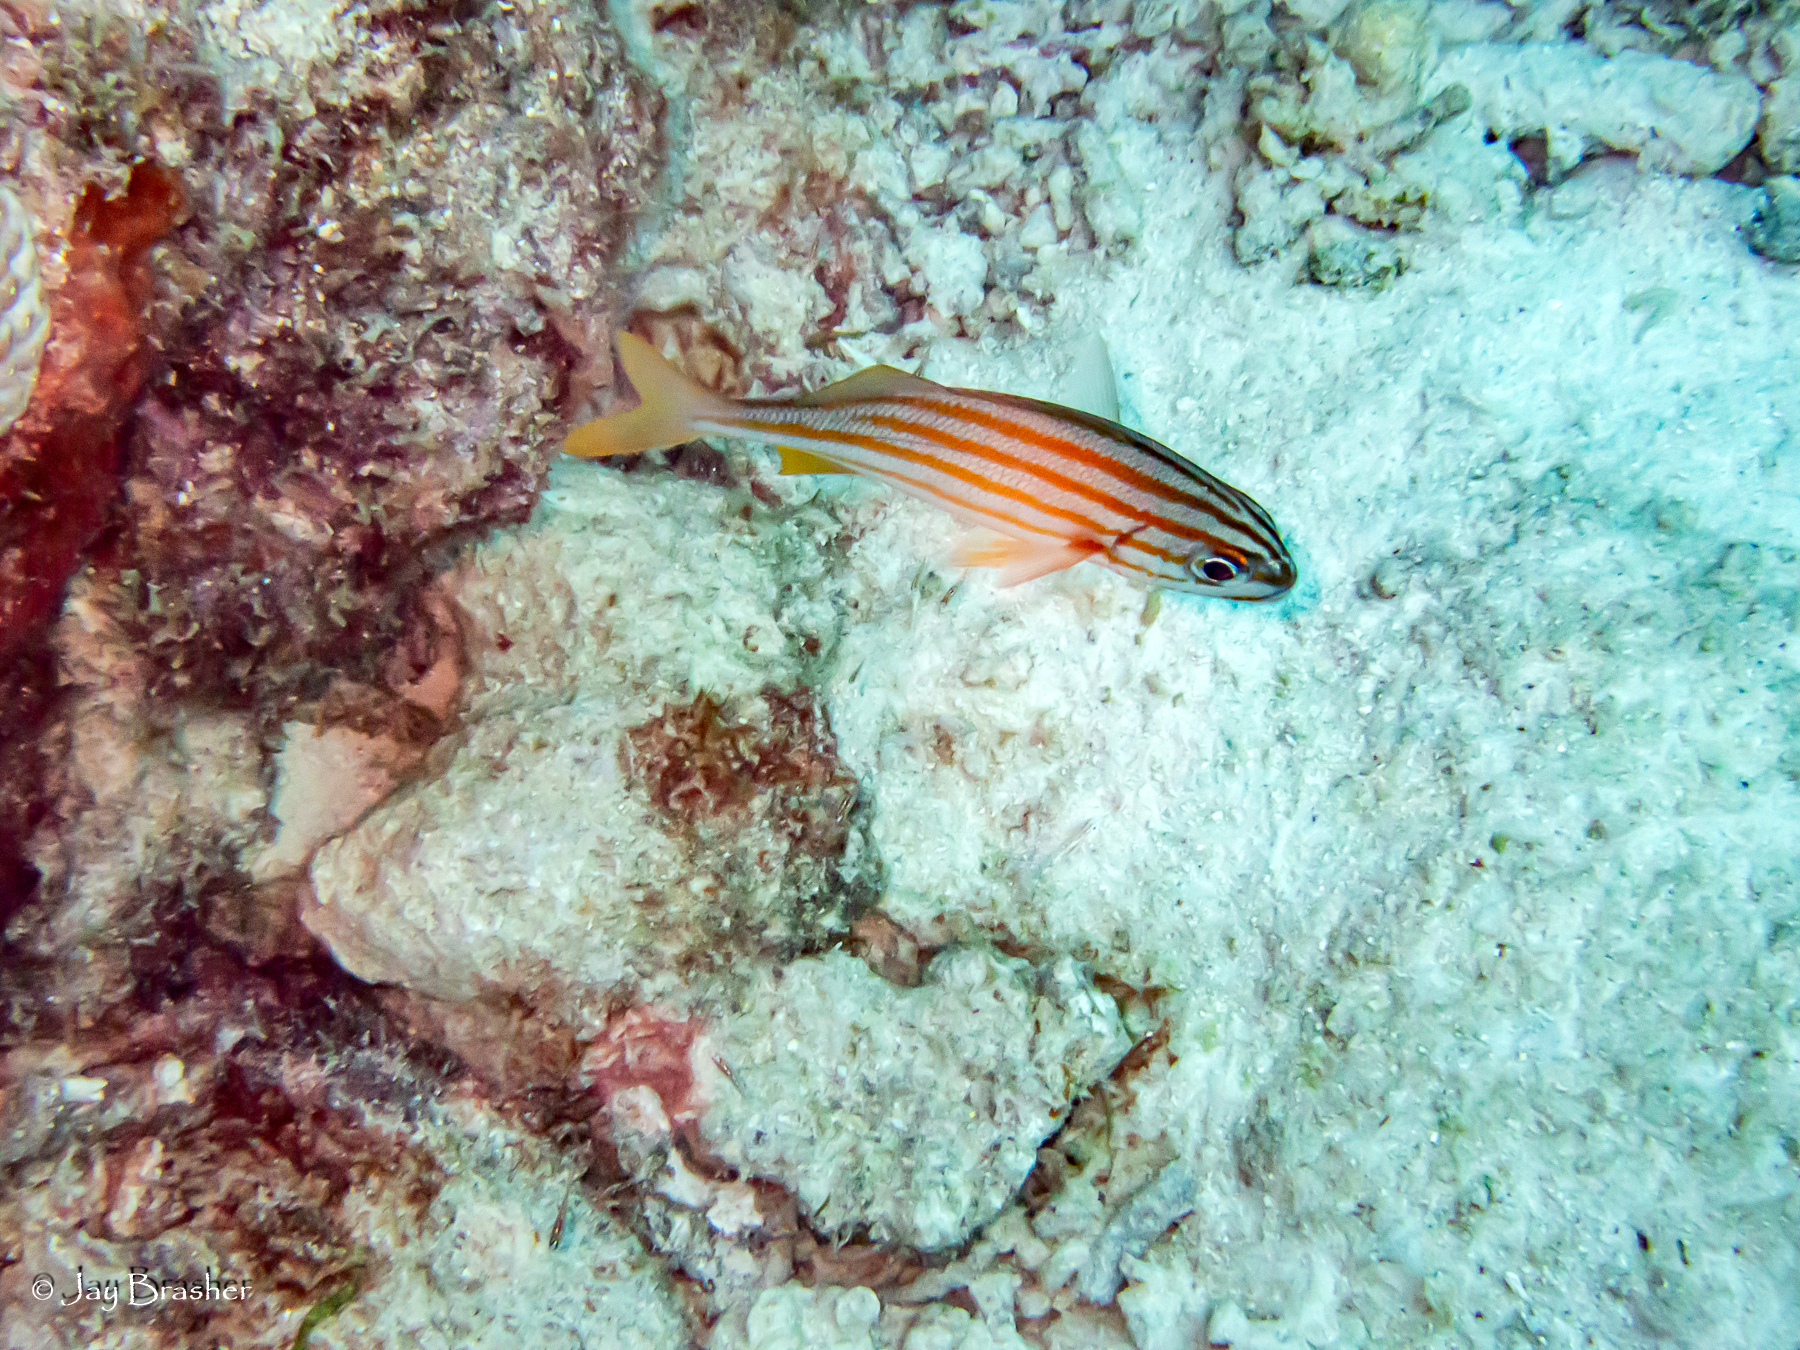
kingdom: Animalia
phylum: Chordata
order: Perciformes
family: Haemulidae
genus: Haemulon
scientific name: Haemulon chrysargyreum
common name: Smallmouth grunt
